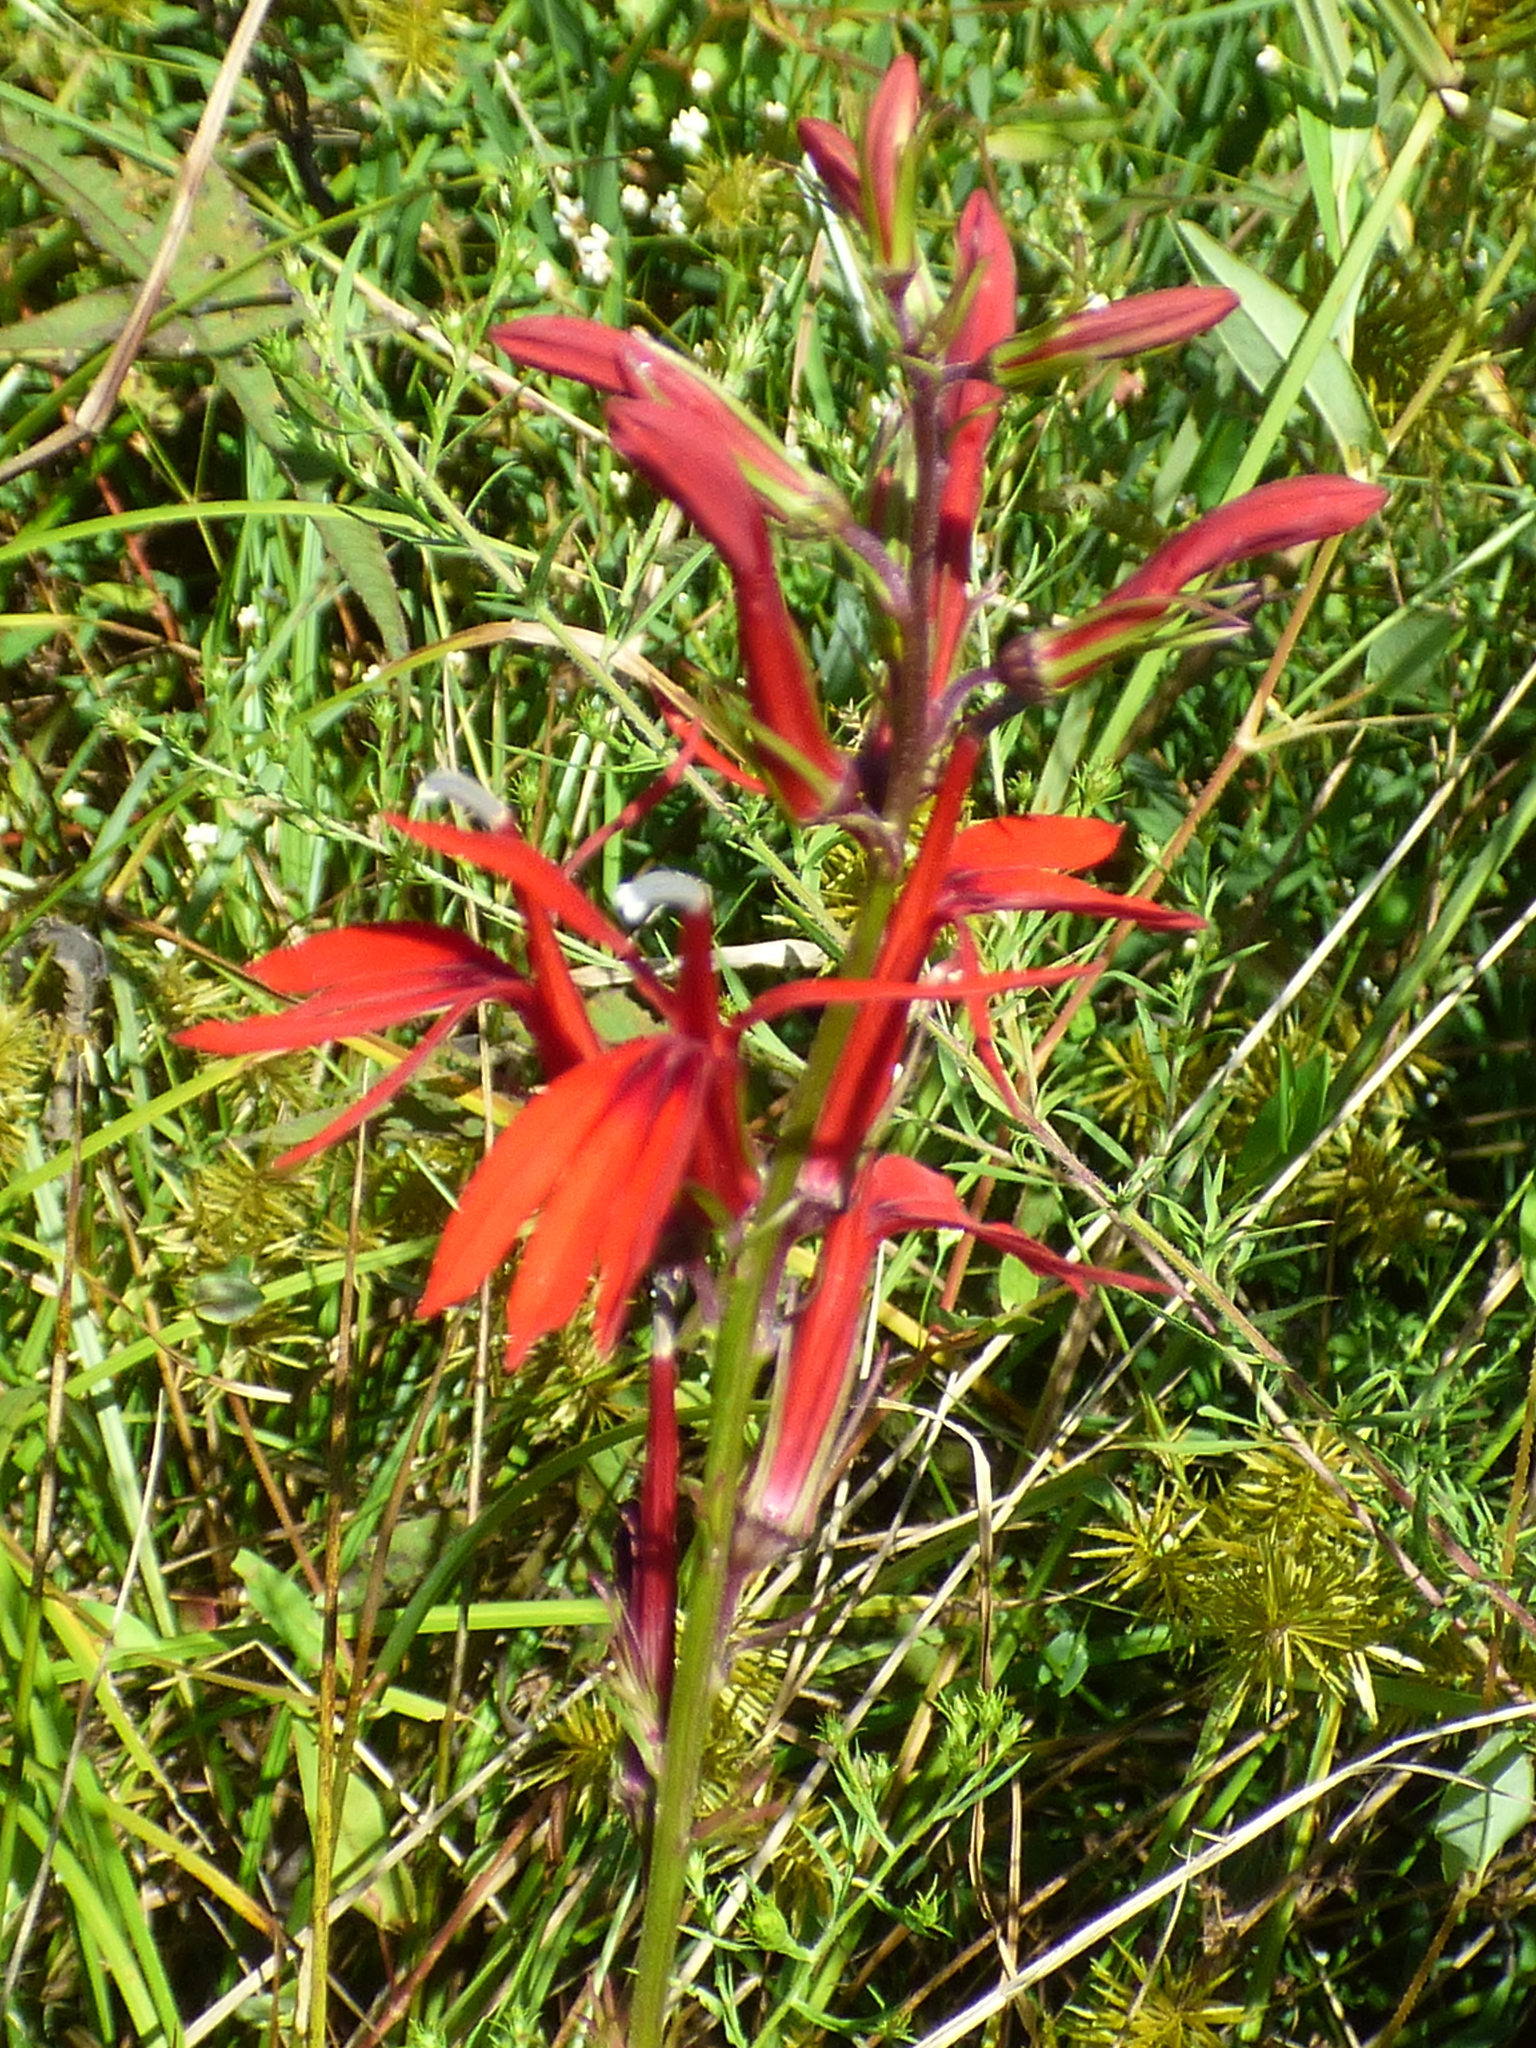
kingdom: Plantae
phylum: Tracheophyta
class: Magnoliopsida
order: Asterales
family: Campanulaceae
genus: Lobelia
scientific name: Lobelia cardinalis
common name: Cardinal flower
